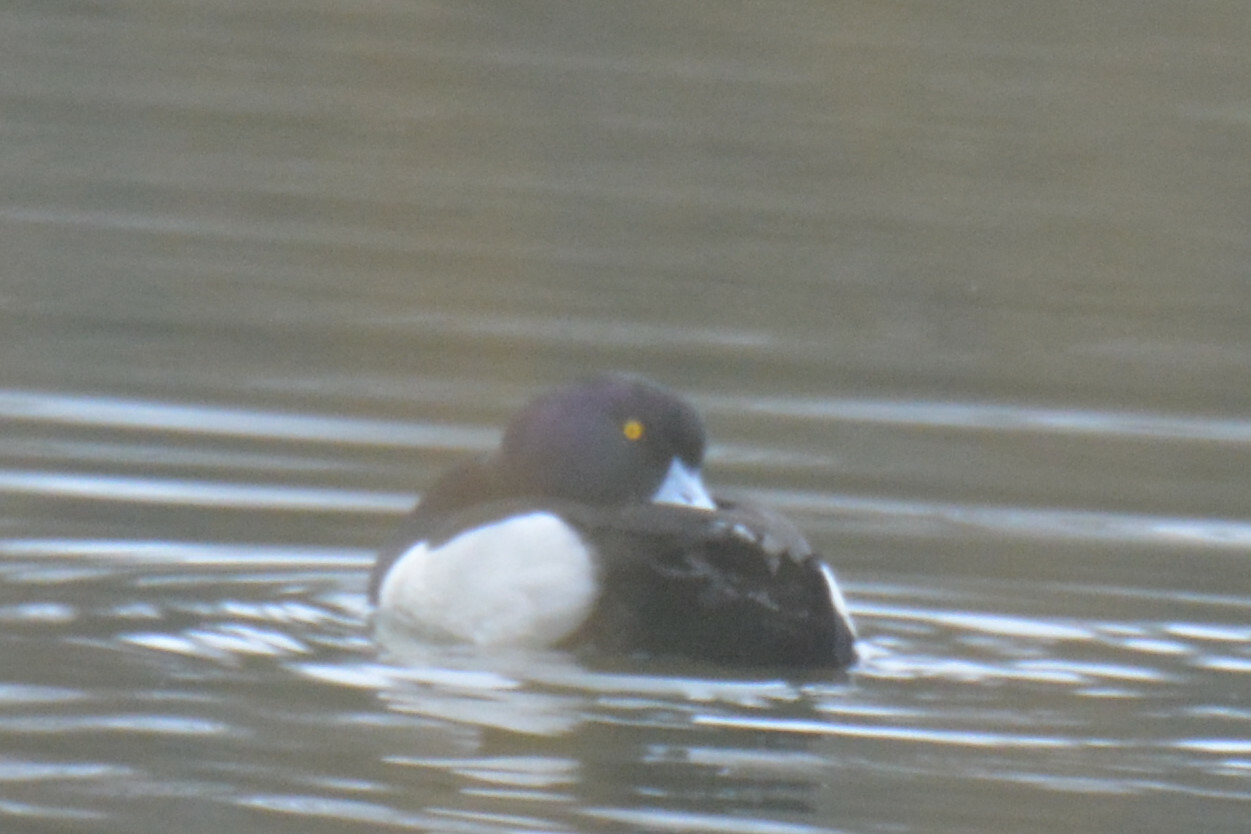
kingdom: Animalia
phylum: Chordata
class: Aves
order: Anseriformes
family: Anatidae
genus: Aythya
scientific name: Aythya fuligula
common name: Tufted duck
